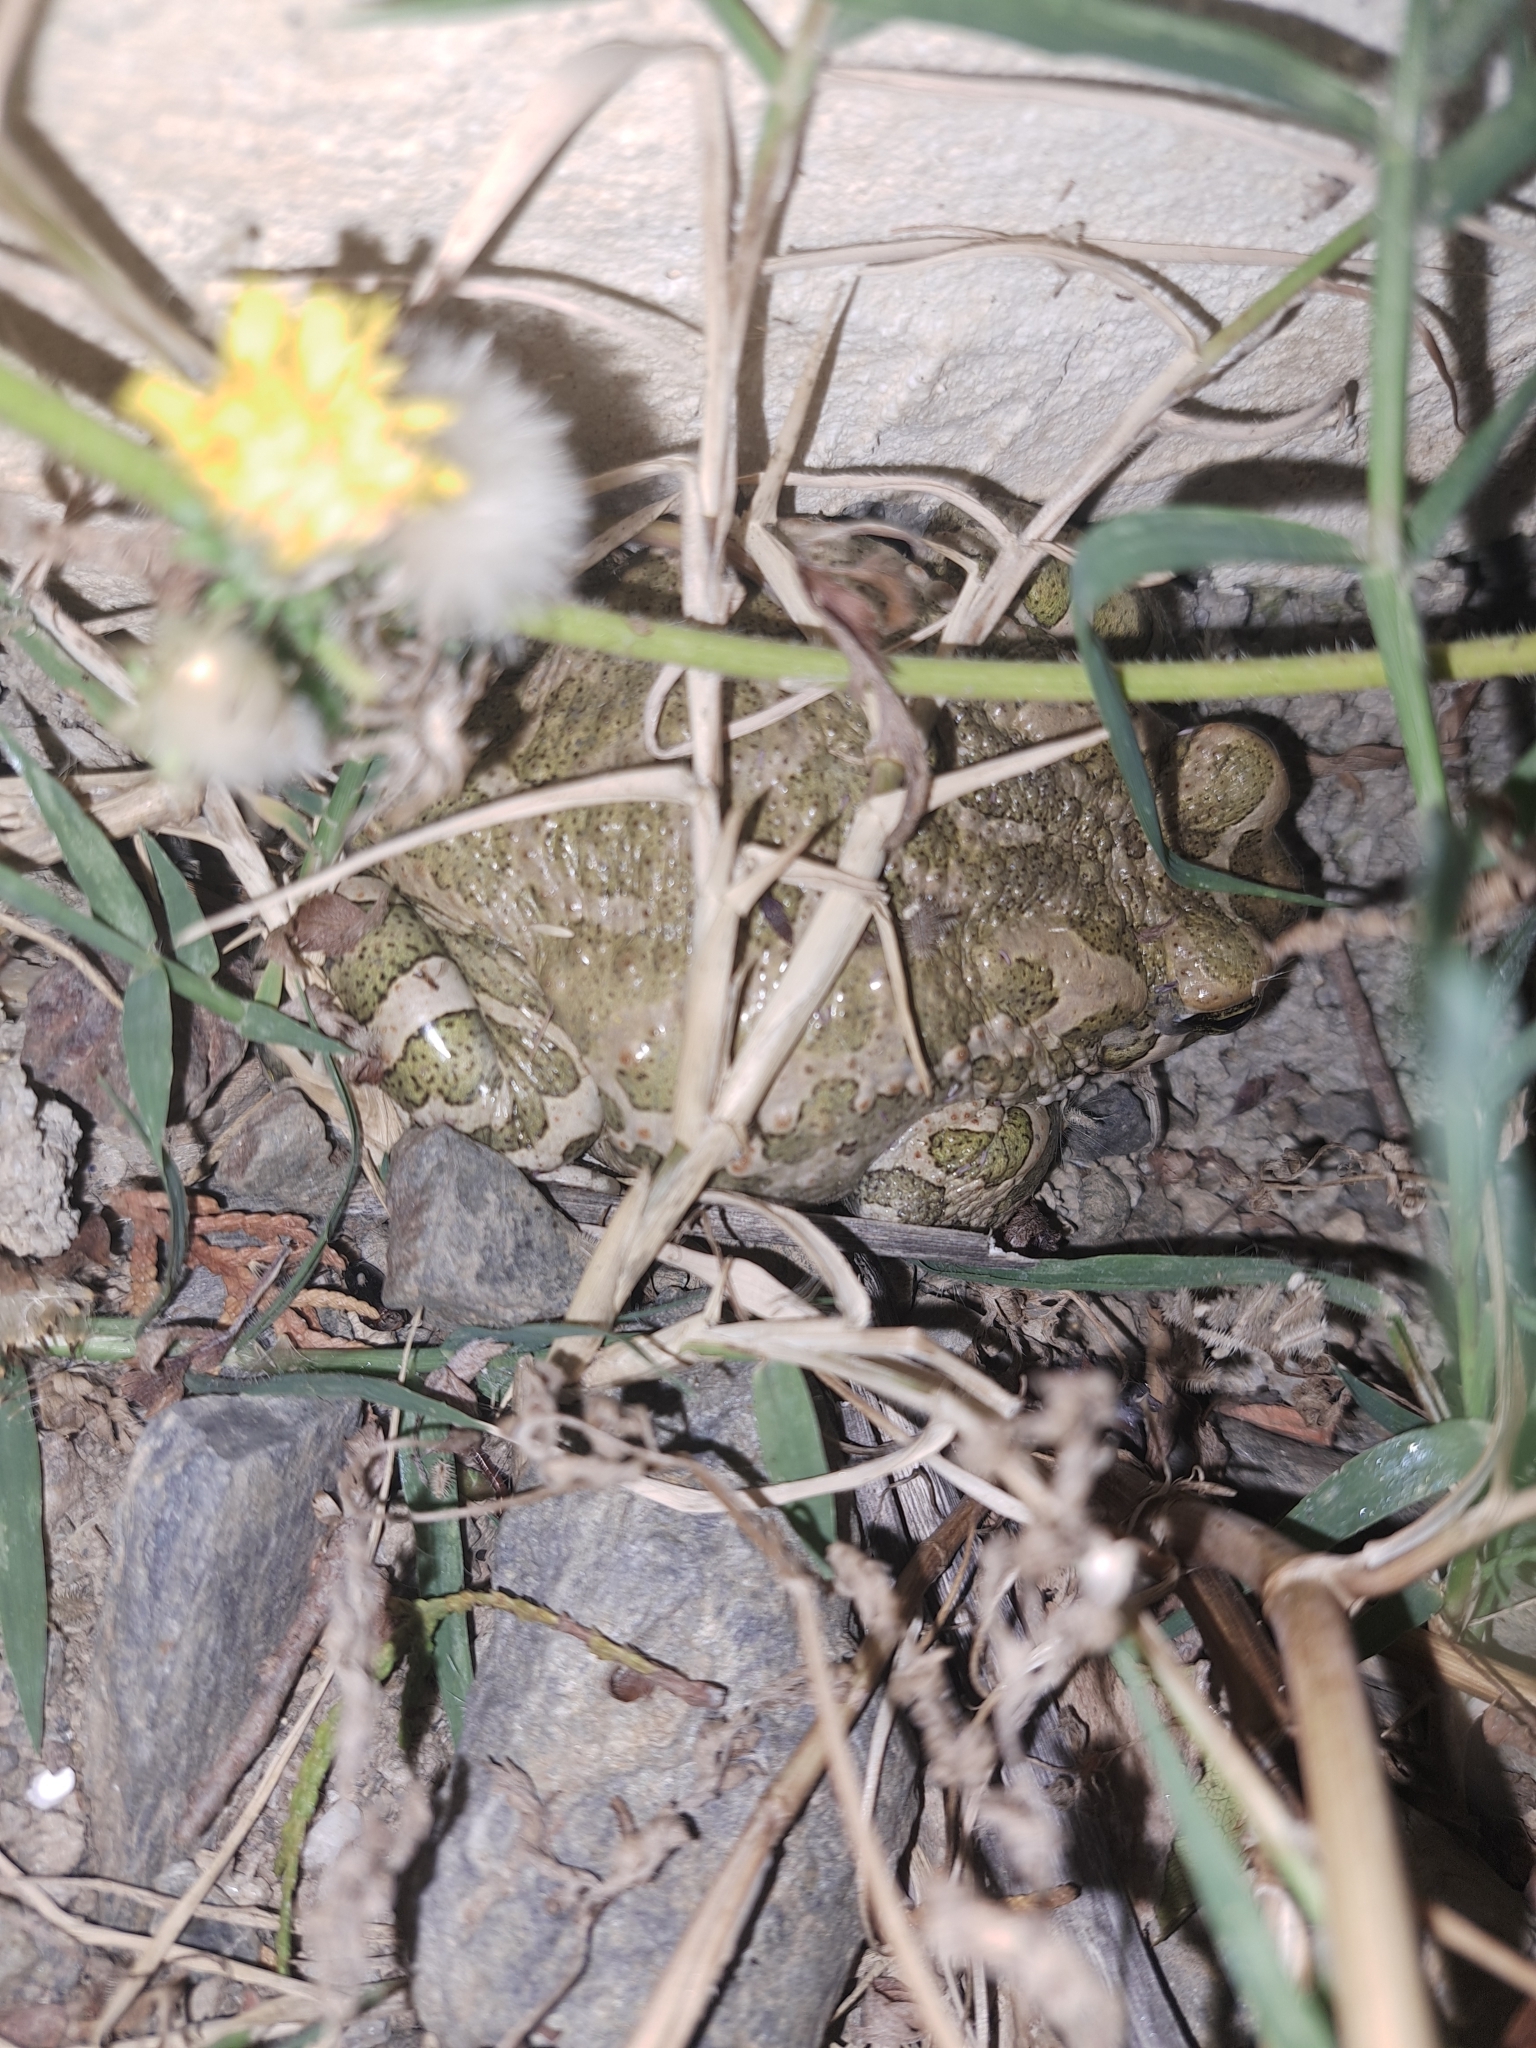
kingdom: Animalia
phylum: Chordata
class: Amphibia
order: Anura
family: Bufonidae
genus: Bufotes
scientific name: Bufotes viridis
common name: European green toad
